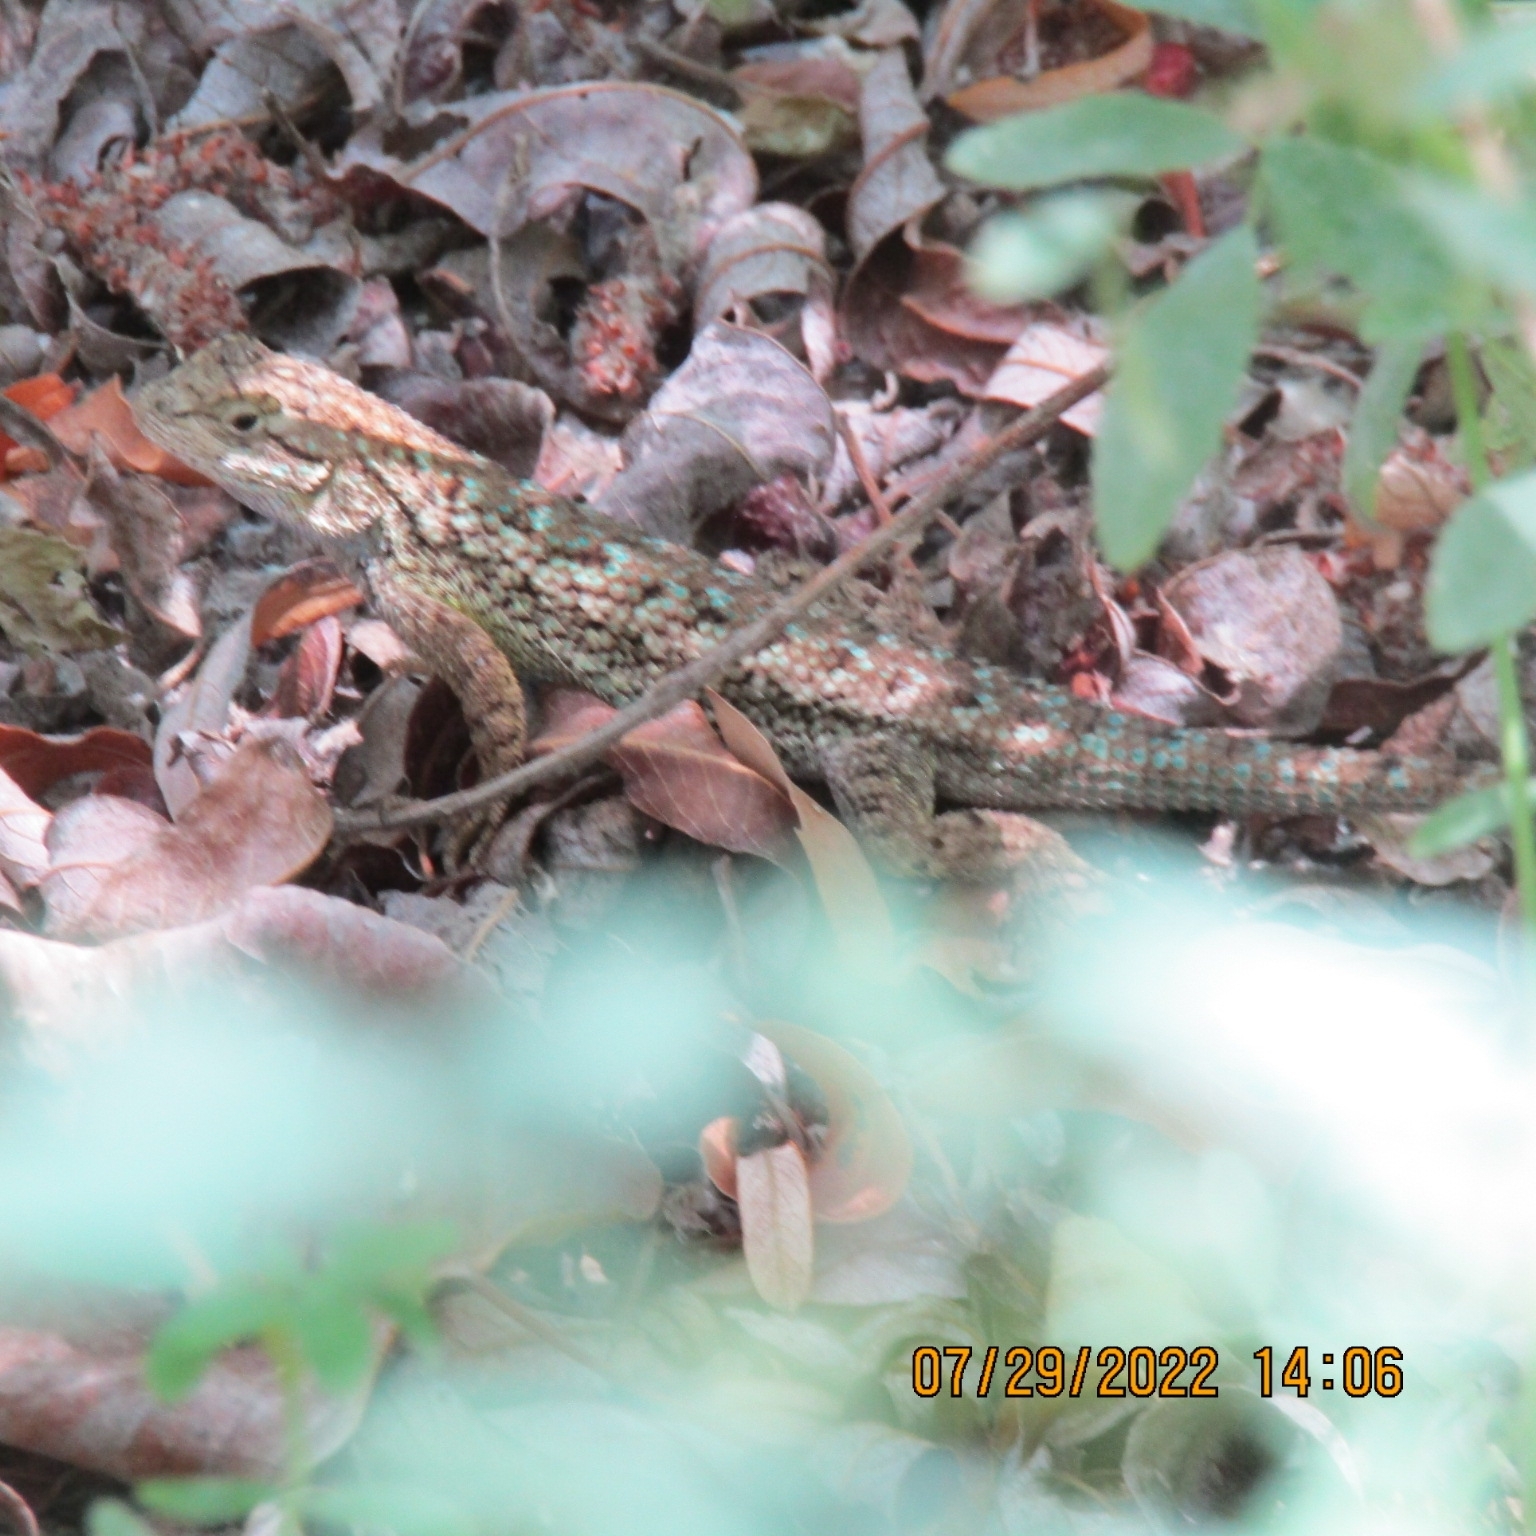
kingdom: Animalia
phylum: Chordata
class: Squamata
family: Phrynosomatidae
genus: Sceloporus
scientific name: Sceloporus occidentalis
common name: Western fence lizard
